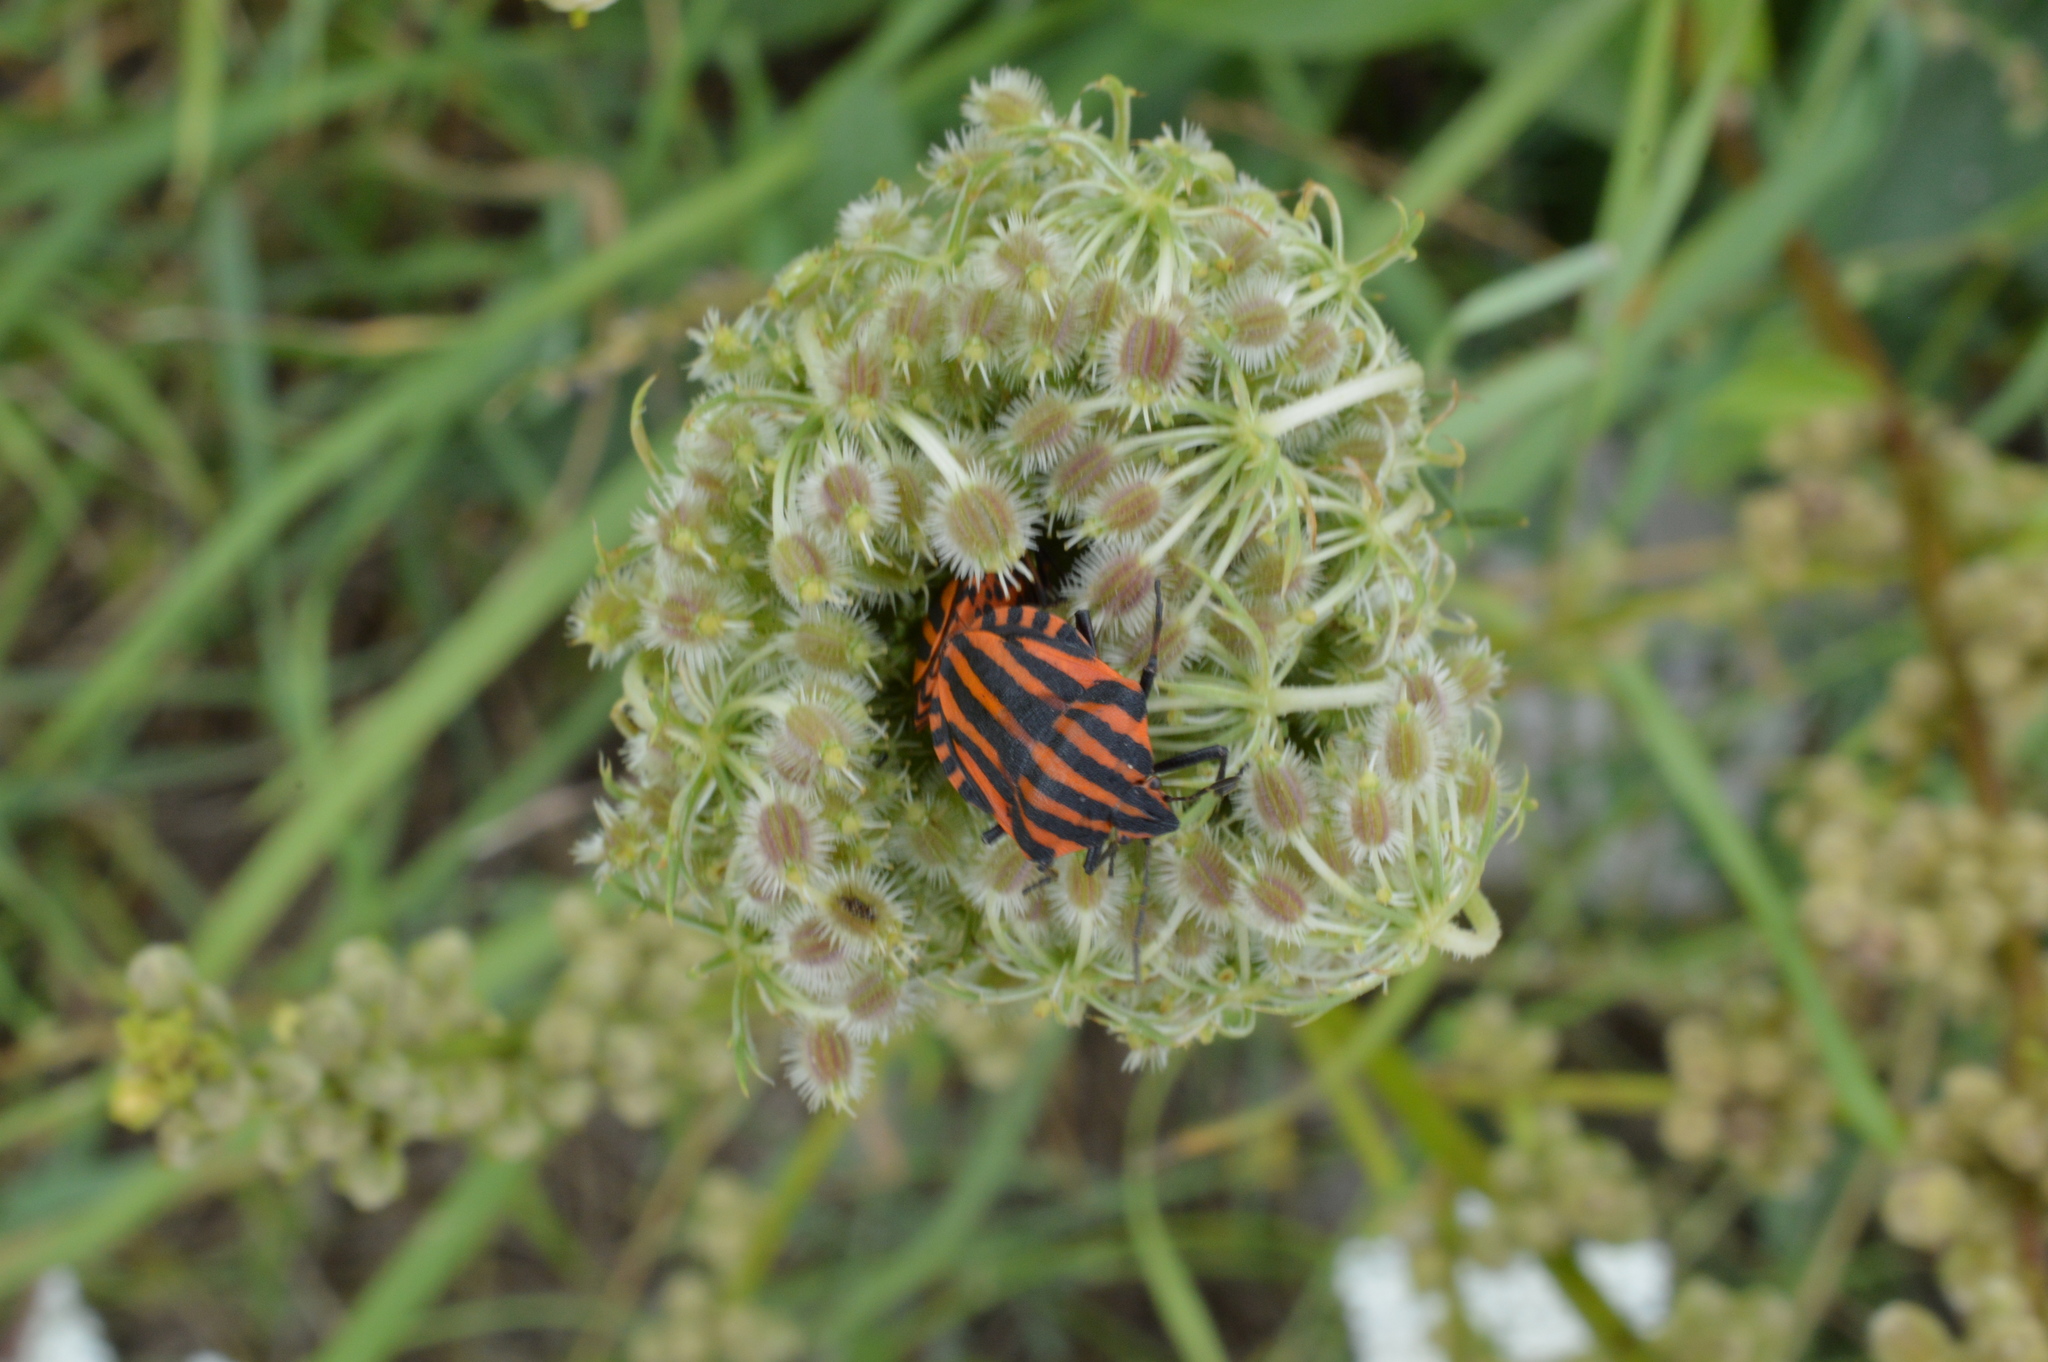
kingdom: Animalia
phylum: Arthropoda
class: Insecta
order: Hemiptera
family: Pentatomidae
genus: Graphosoma
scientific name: Graphosoma italicum
